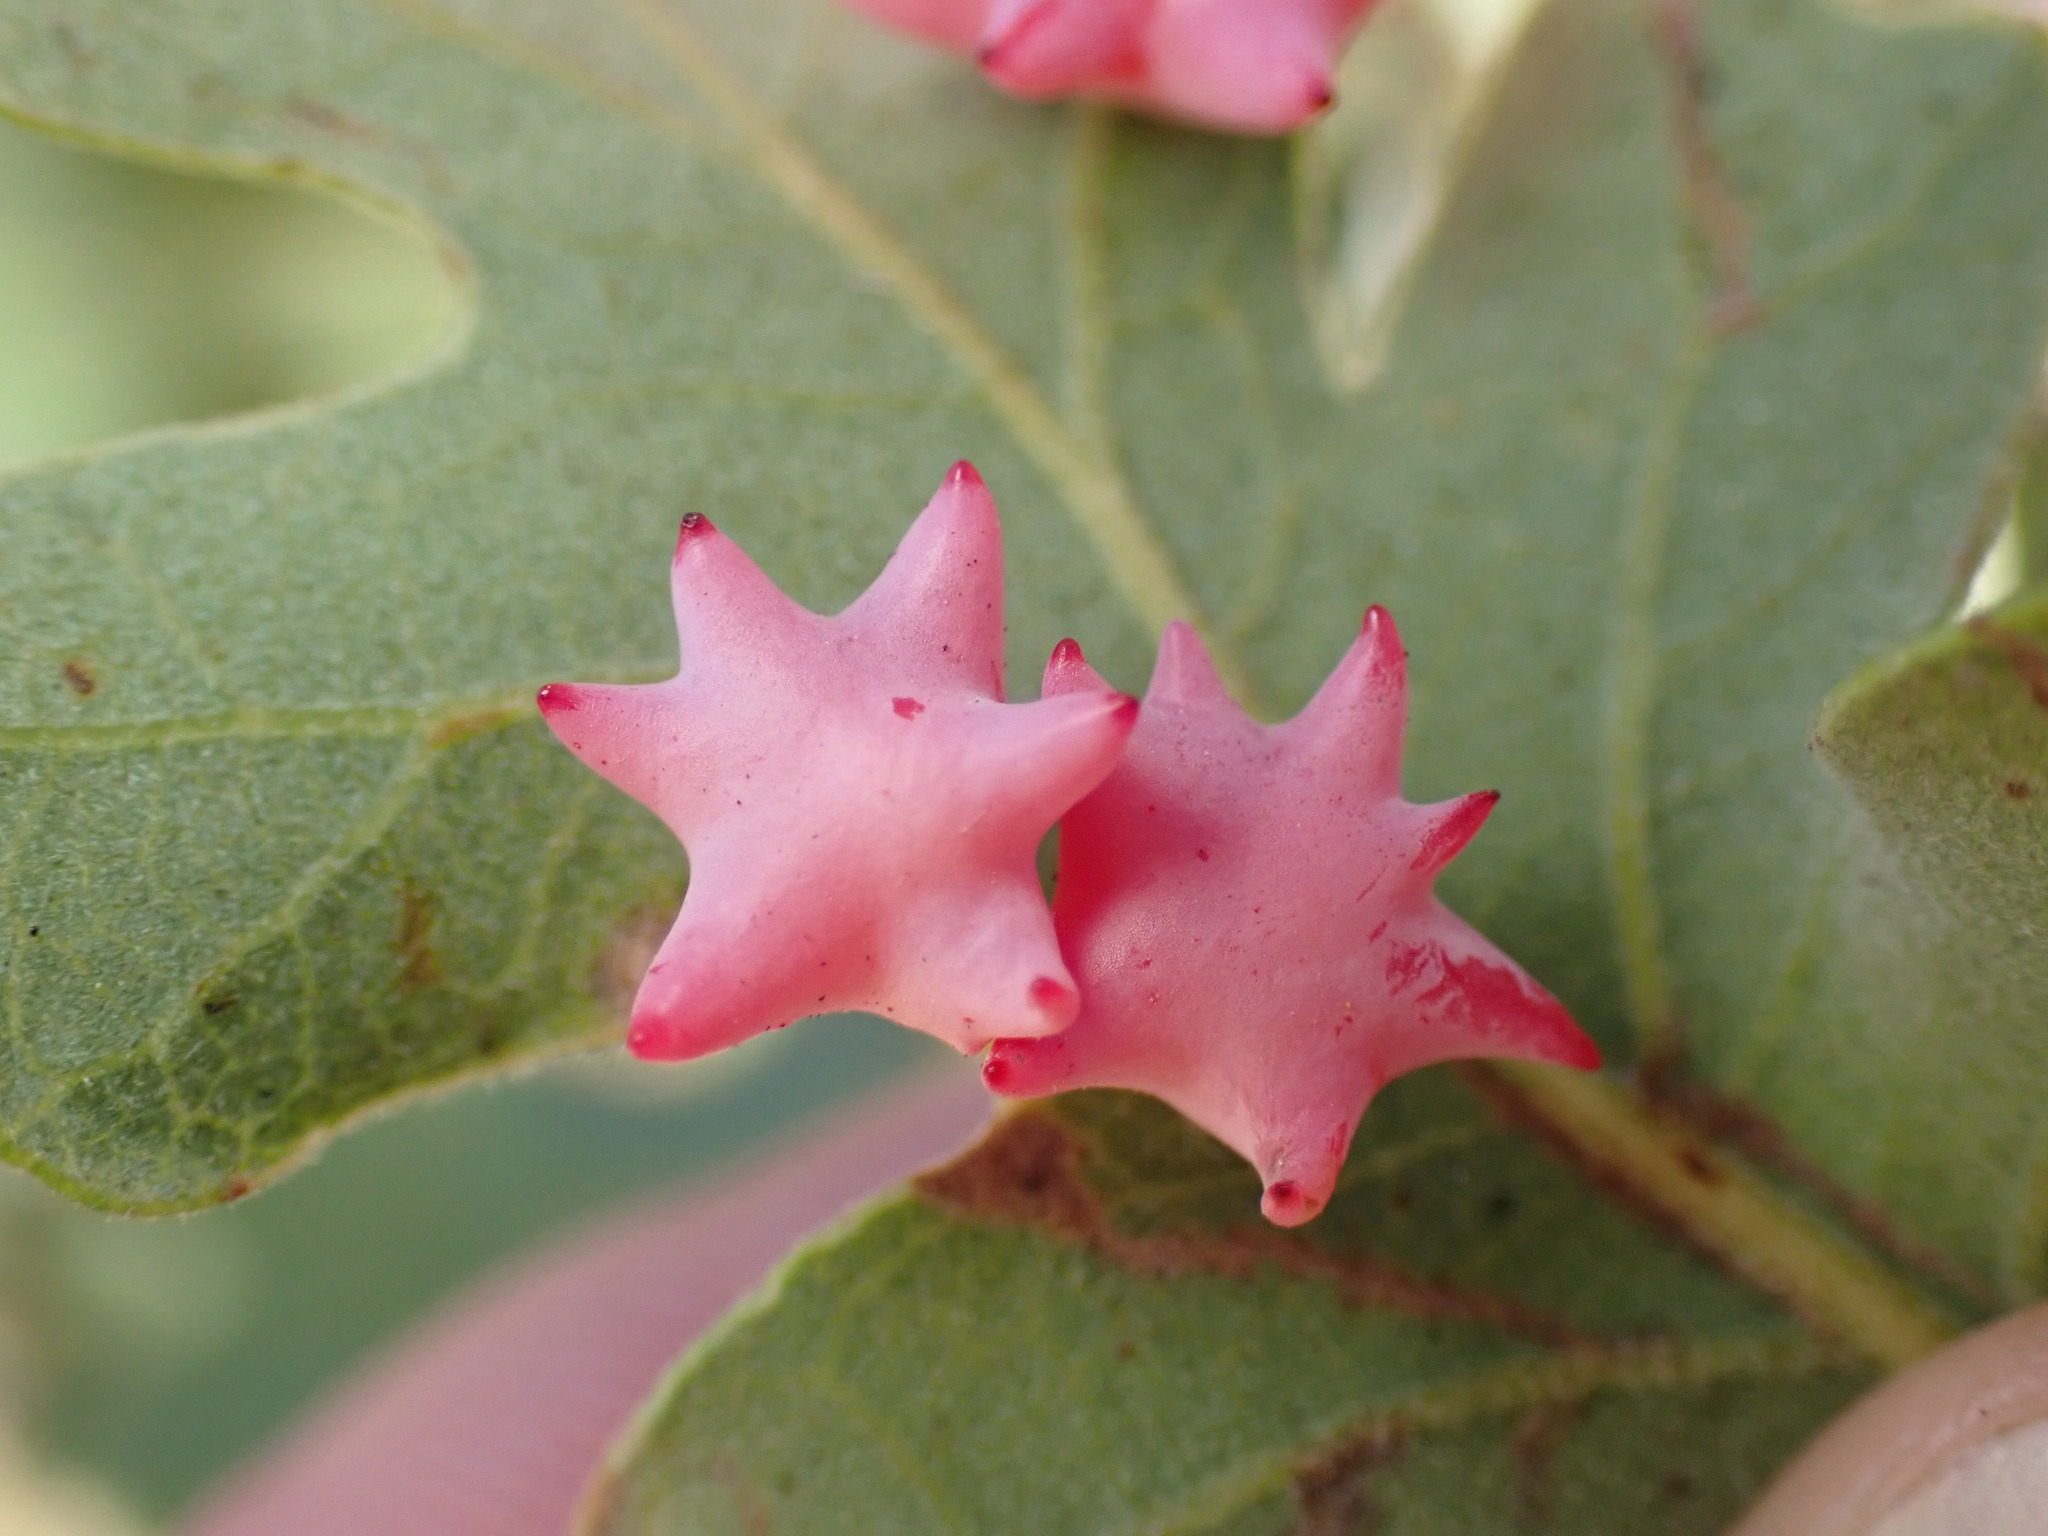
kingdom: Animalia
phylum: Arthropoda
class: Insecta
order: Hymenoptera
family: Cynipidae
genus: Cynips
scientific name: Cynips douglasi
